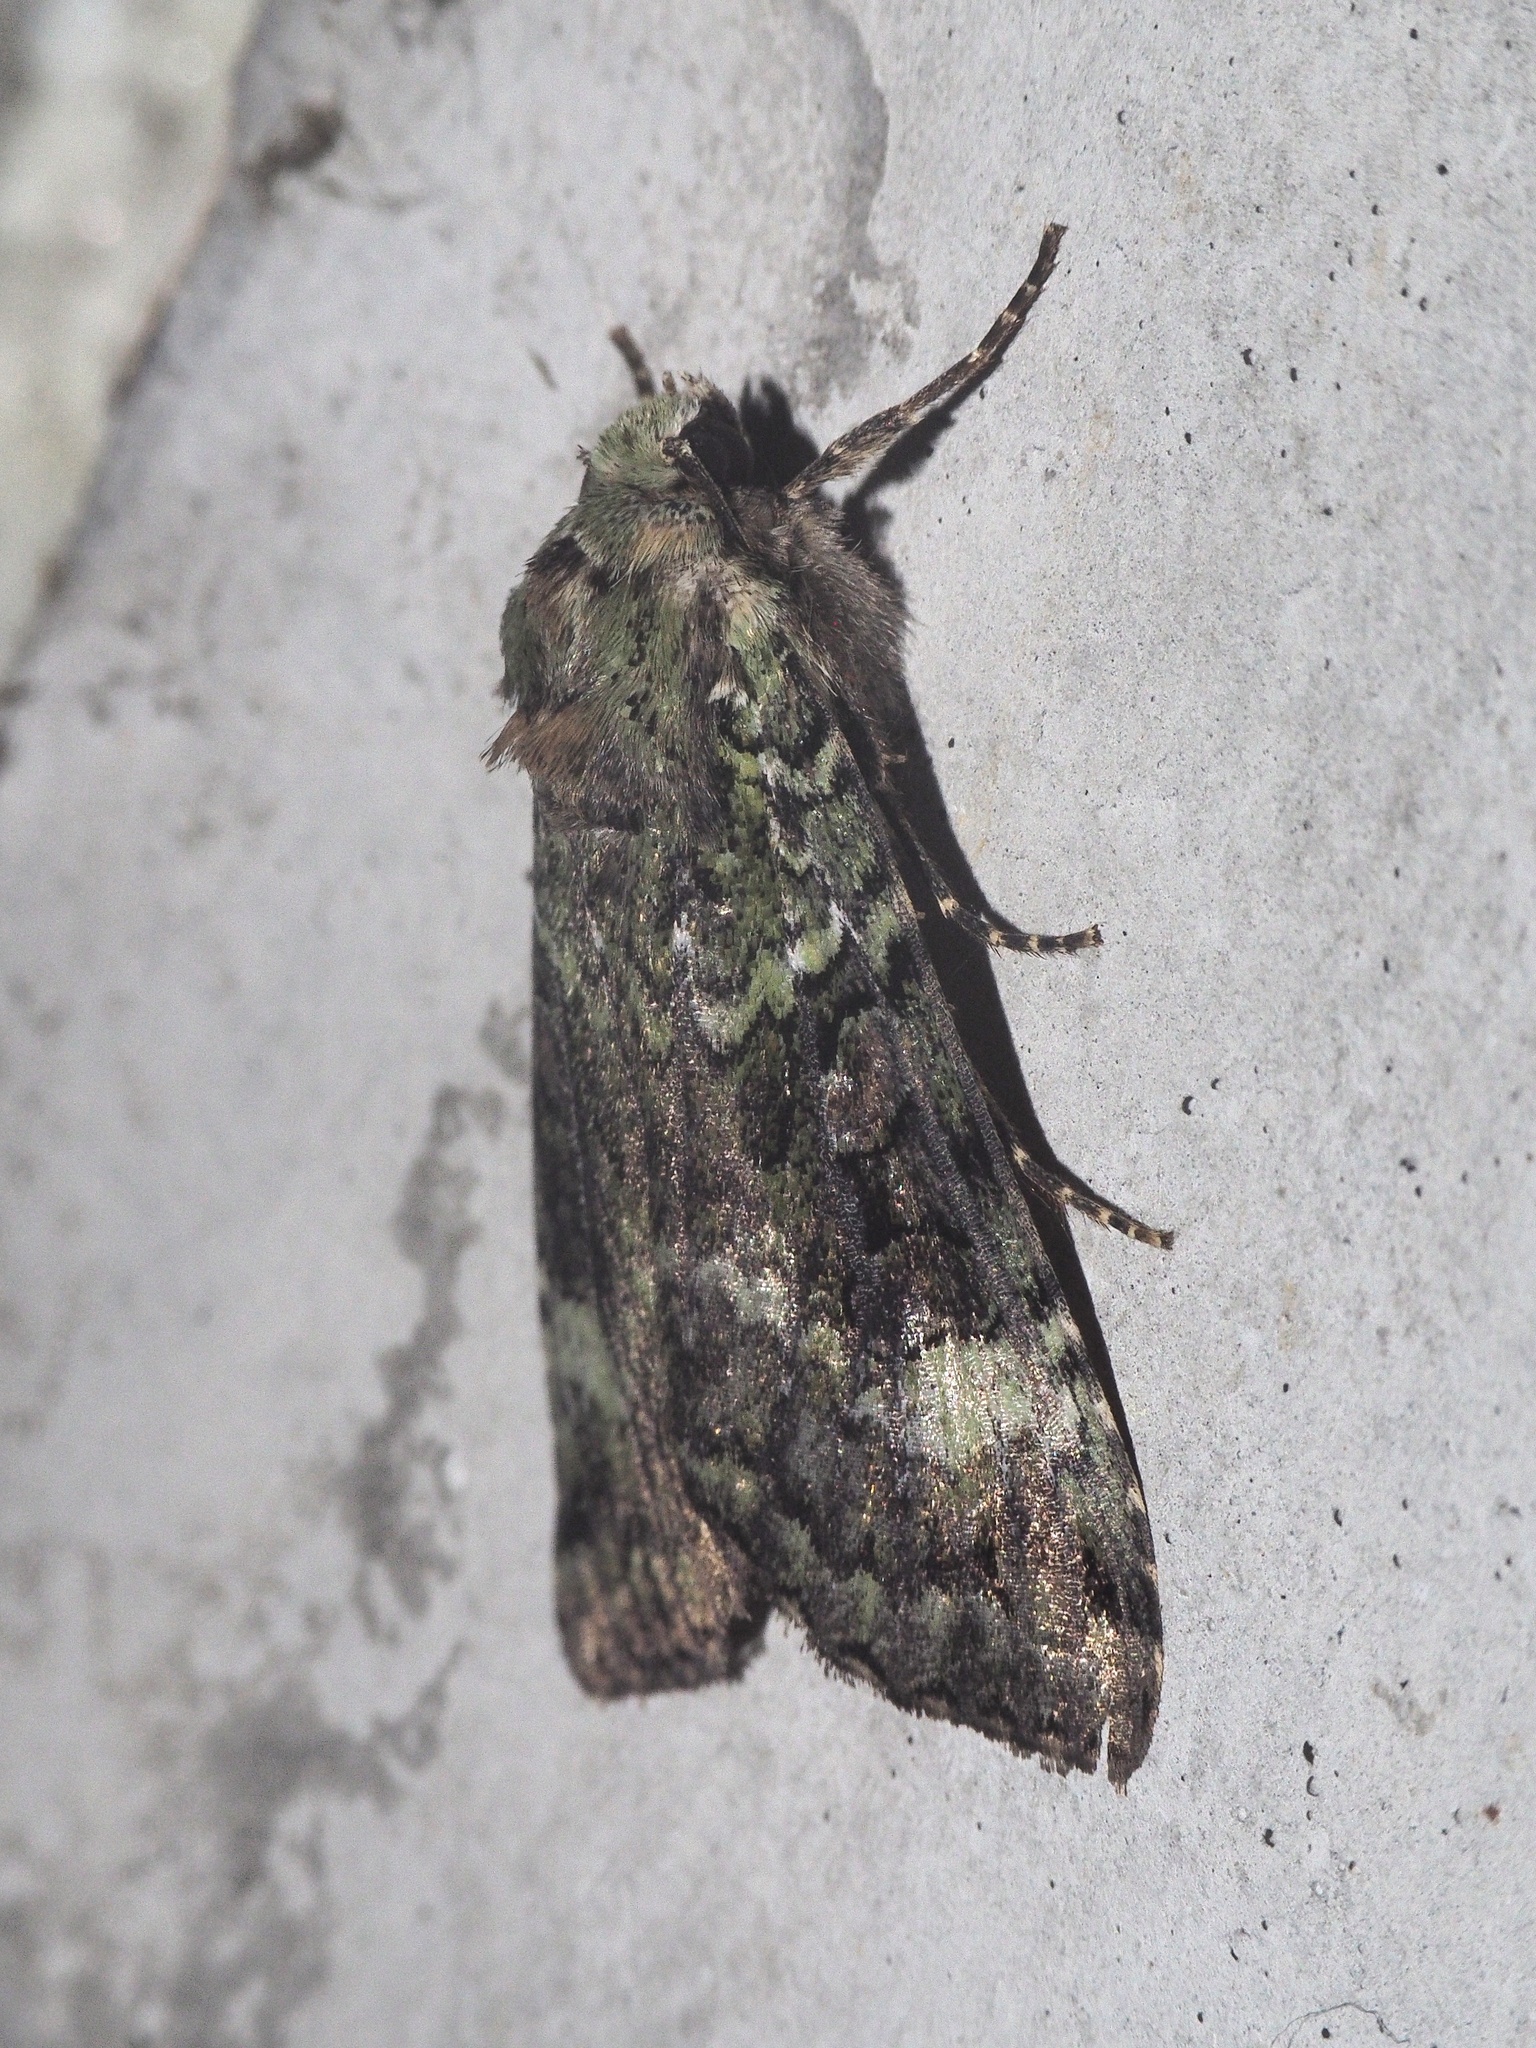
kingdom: Animalia
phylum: Arthropoda
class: Insecta
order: Lepidoptera
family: Noctuidae
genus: Anaplectoides
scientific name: Anaplectoides prasina
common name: Green arches
